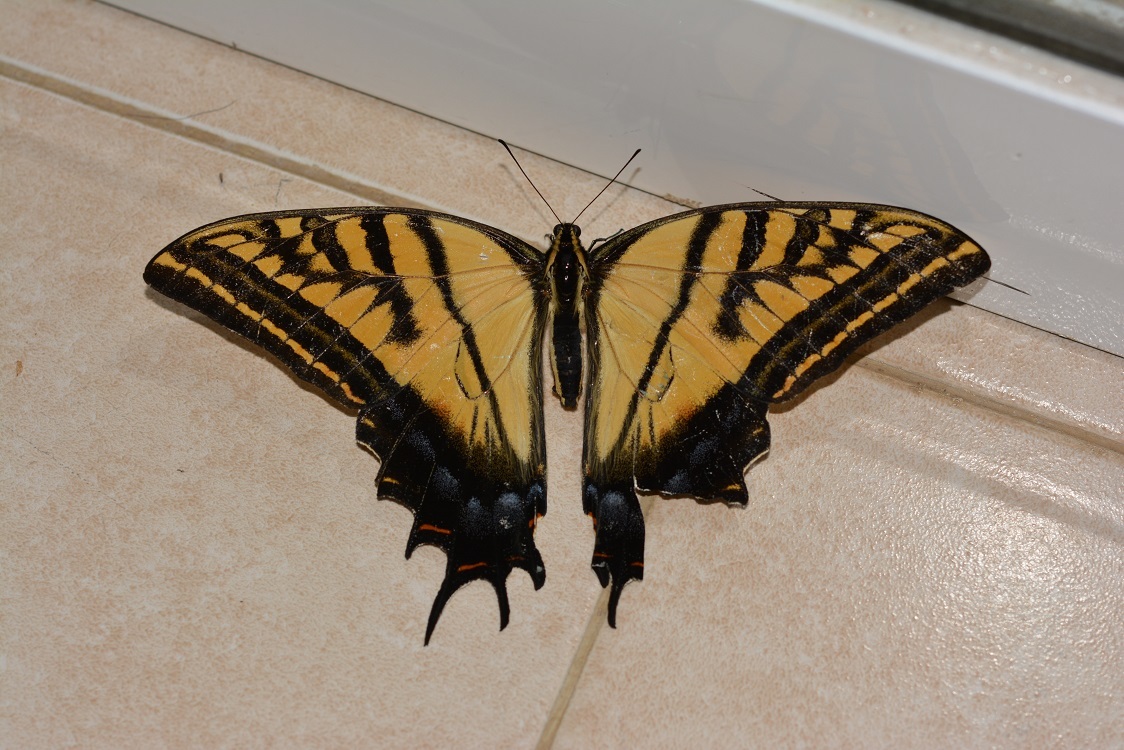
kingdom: Animalia
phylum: Arthropoda
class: Insecta
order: Lepidoptera
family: Papilionidae
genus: Papilio
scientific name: Papilio multicaudata
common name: Two-tailed tiger swallowtail
